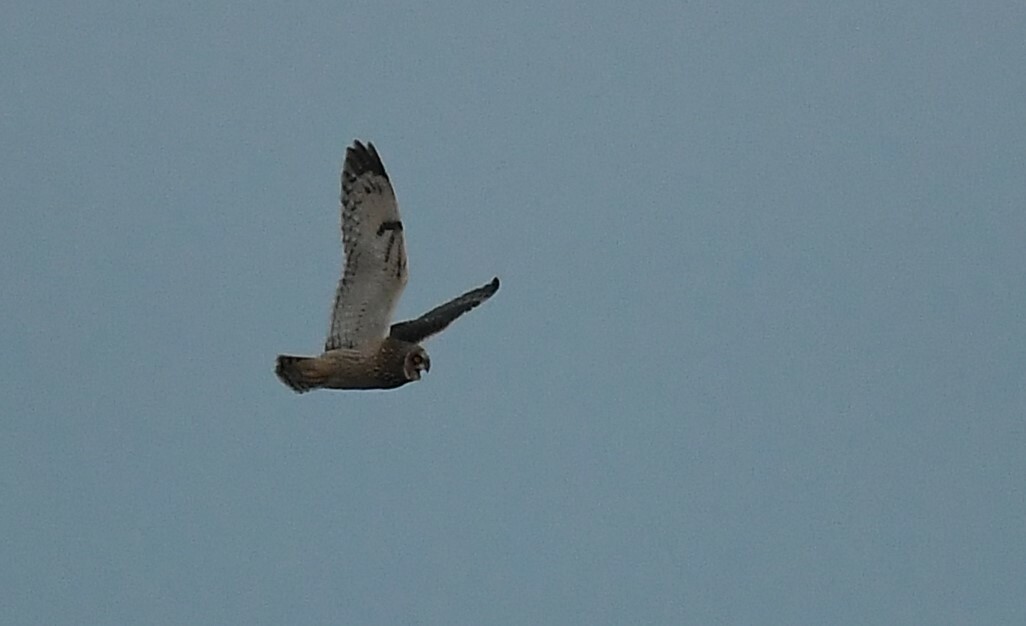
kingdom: Animalia
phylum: Chordata
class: Aves
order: Strigiformes
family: Strigidae
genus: Asio
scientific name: Asio flammeus
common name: Short-eared owl
